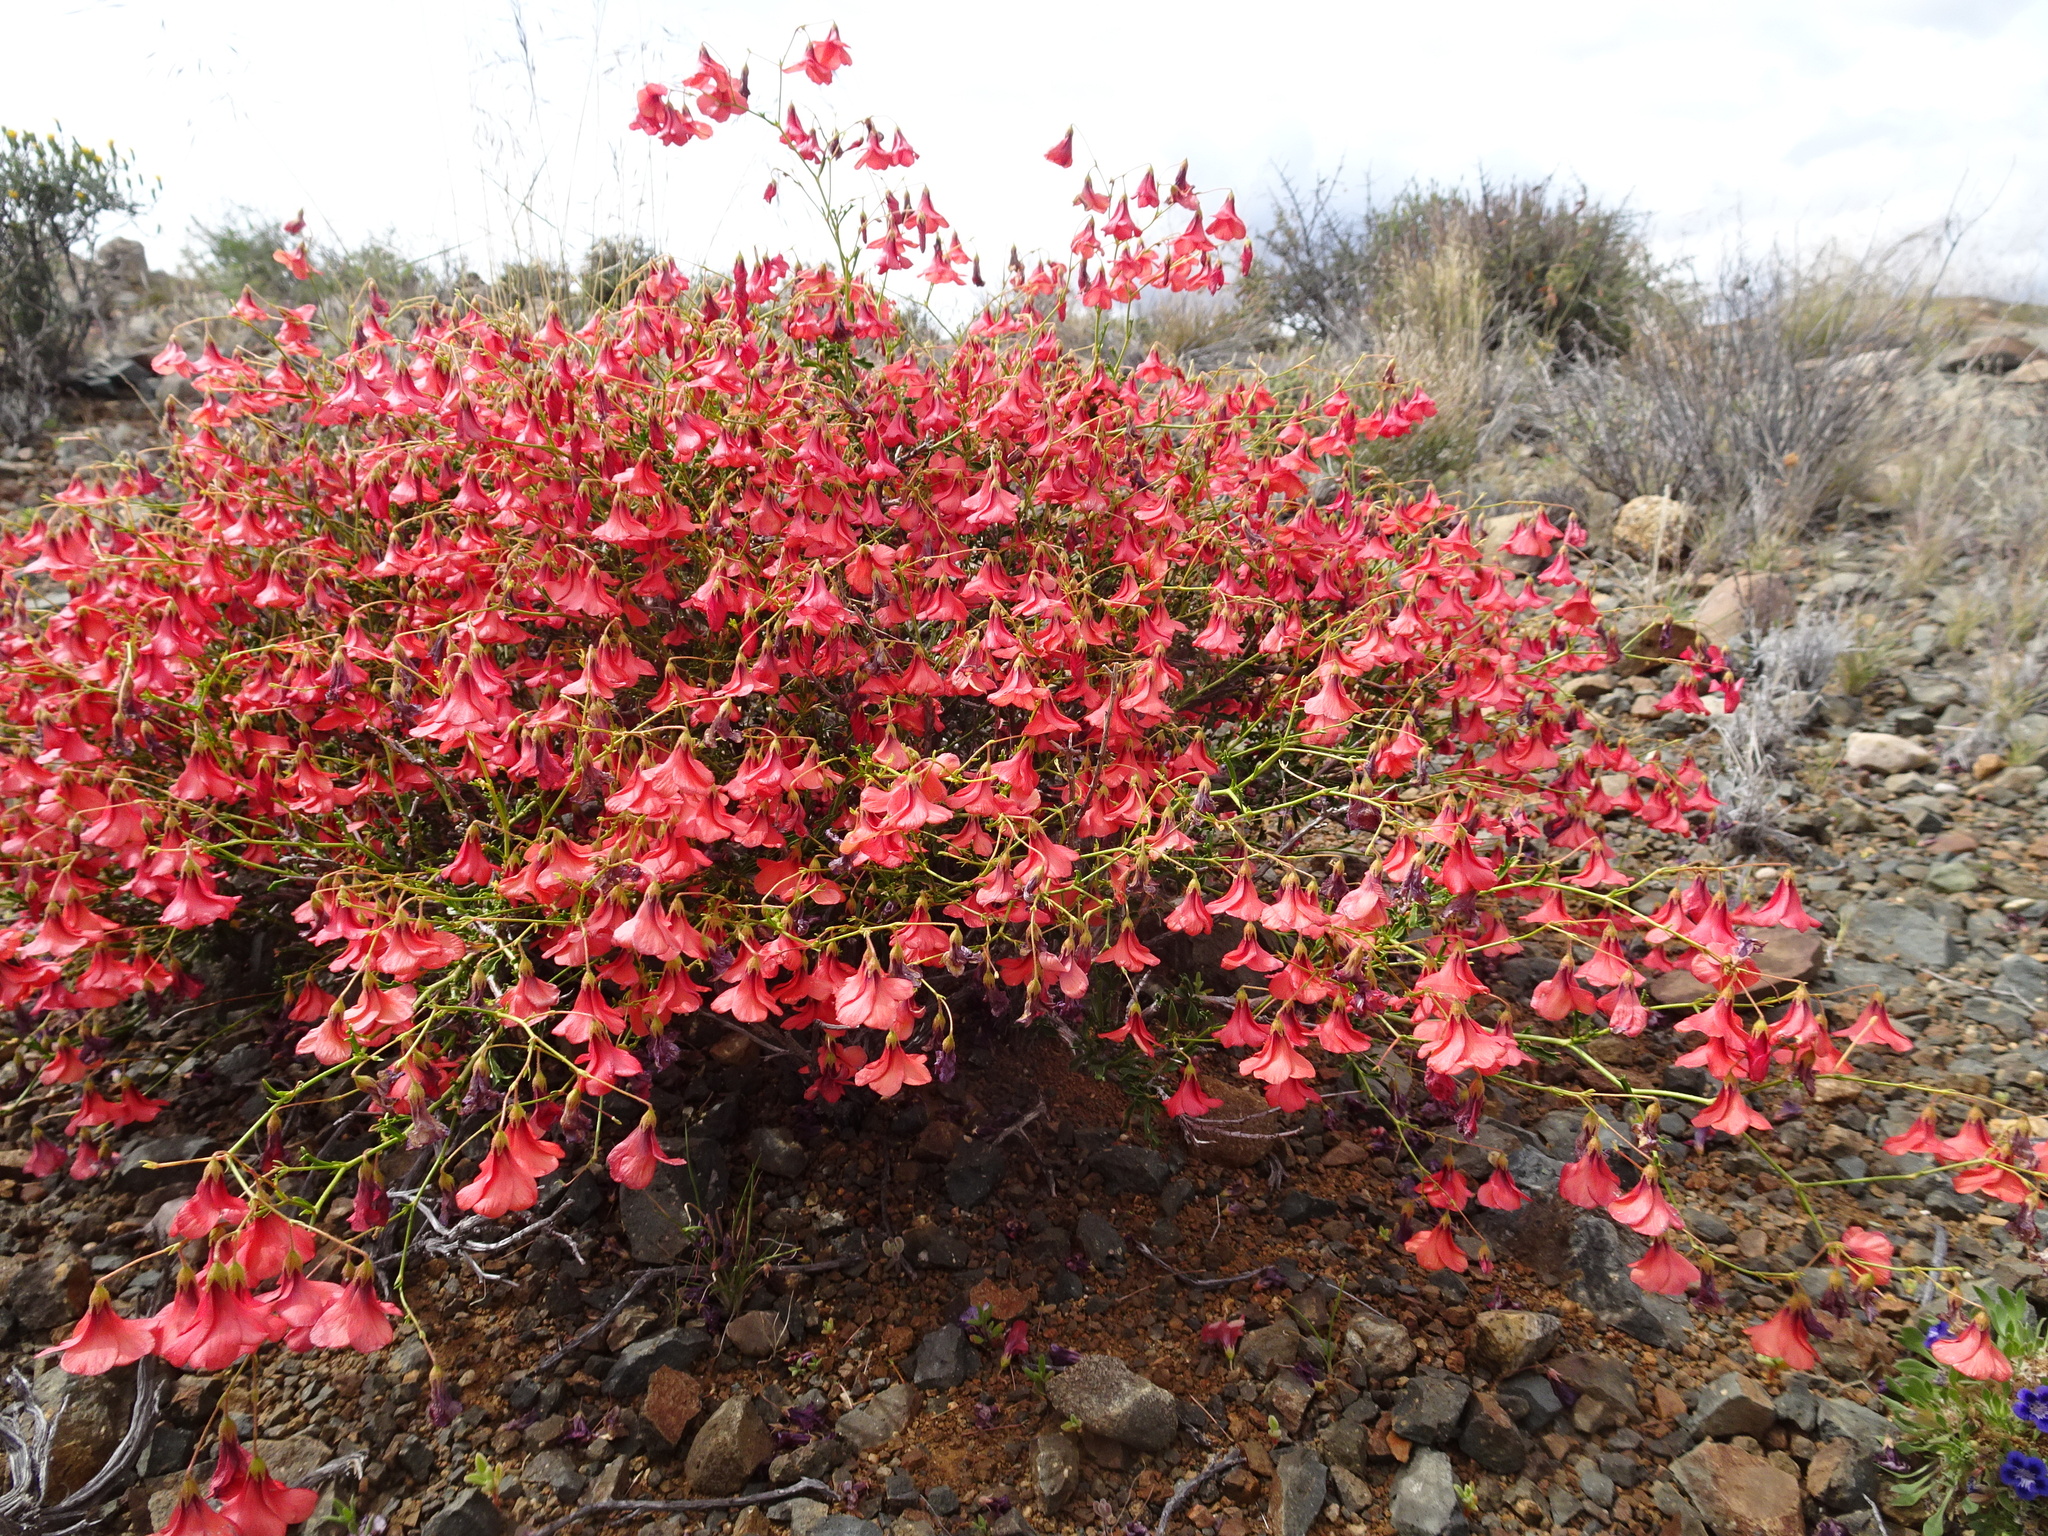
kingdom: Plantae
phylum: Tracheophyta
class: Magnoliopsida
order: Malvales
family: Malvaceae
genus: Hermannia
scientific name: Hermannia stricta
